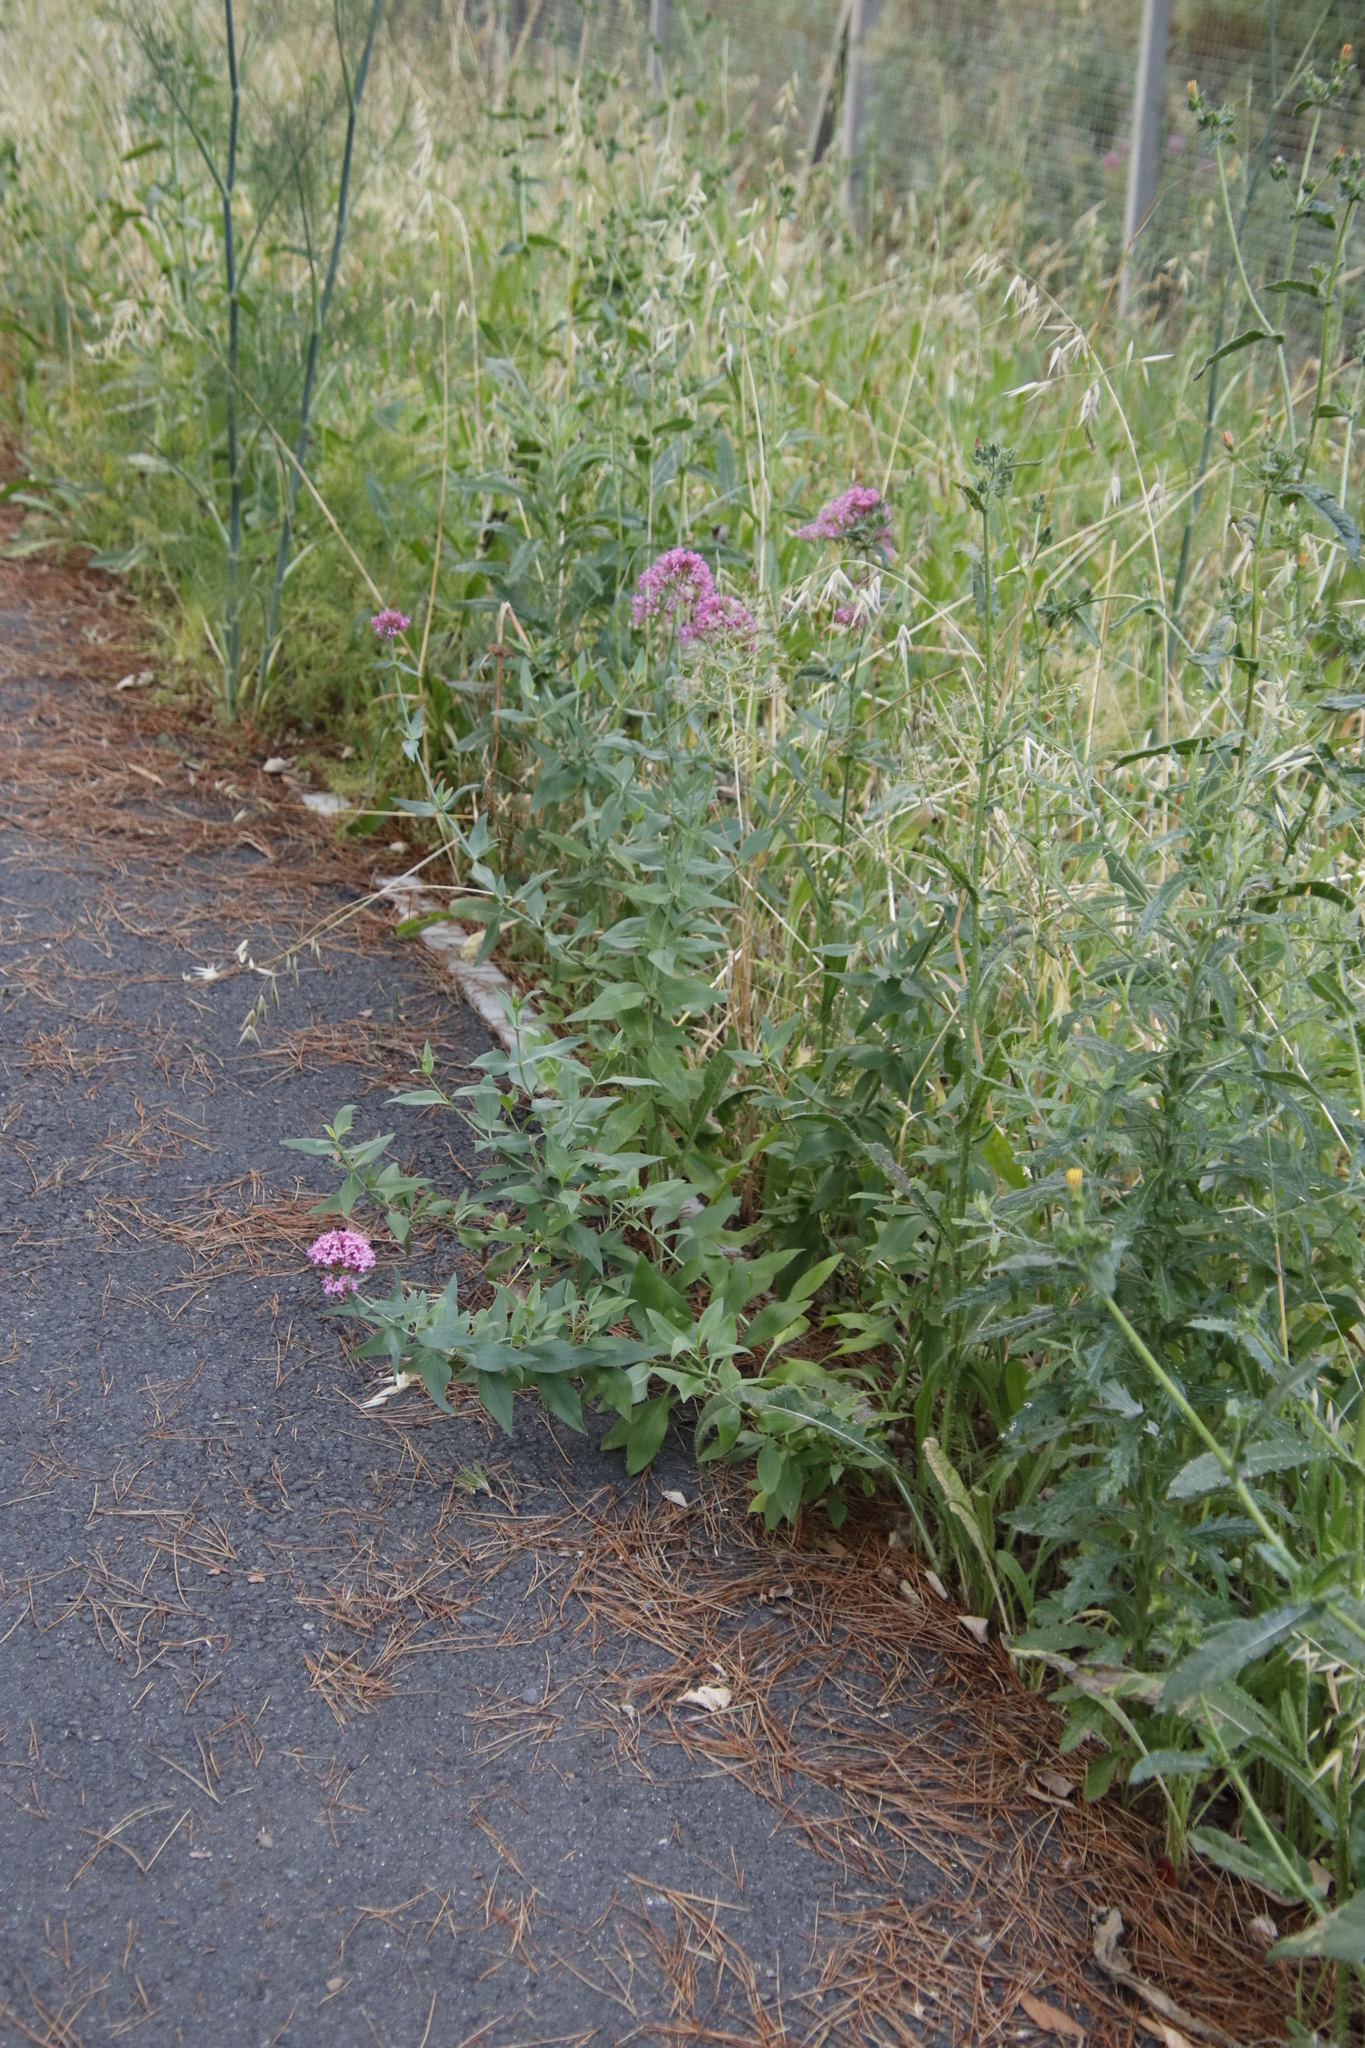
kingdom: Plantae
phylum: Tracheophyta
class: Magnoliopsida
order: Dipsacales
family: Caprifoliaceae
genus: Centranthus
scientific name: Centranthus ruber
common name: Red valerian
